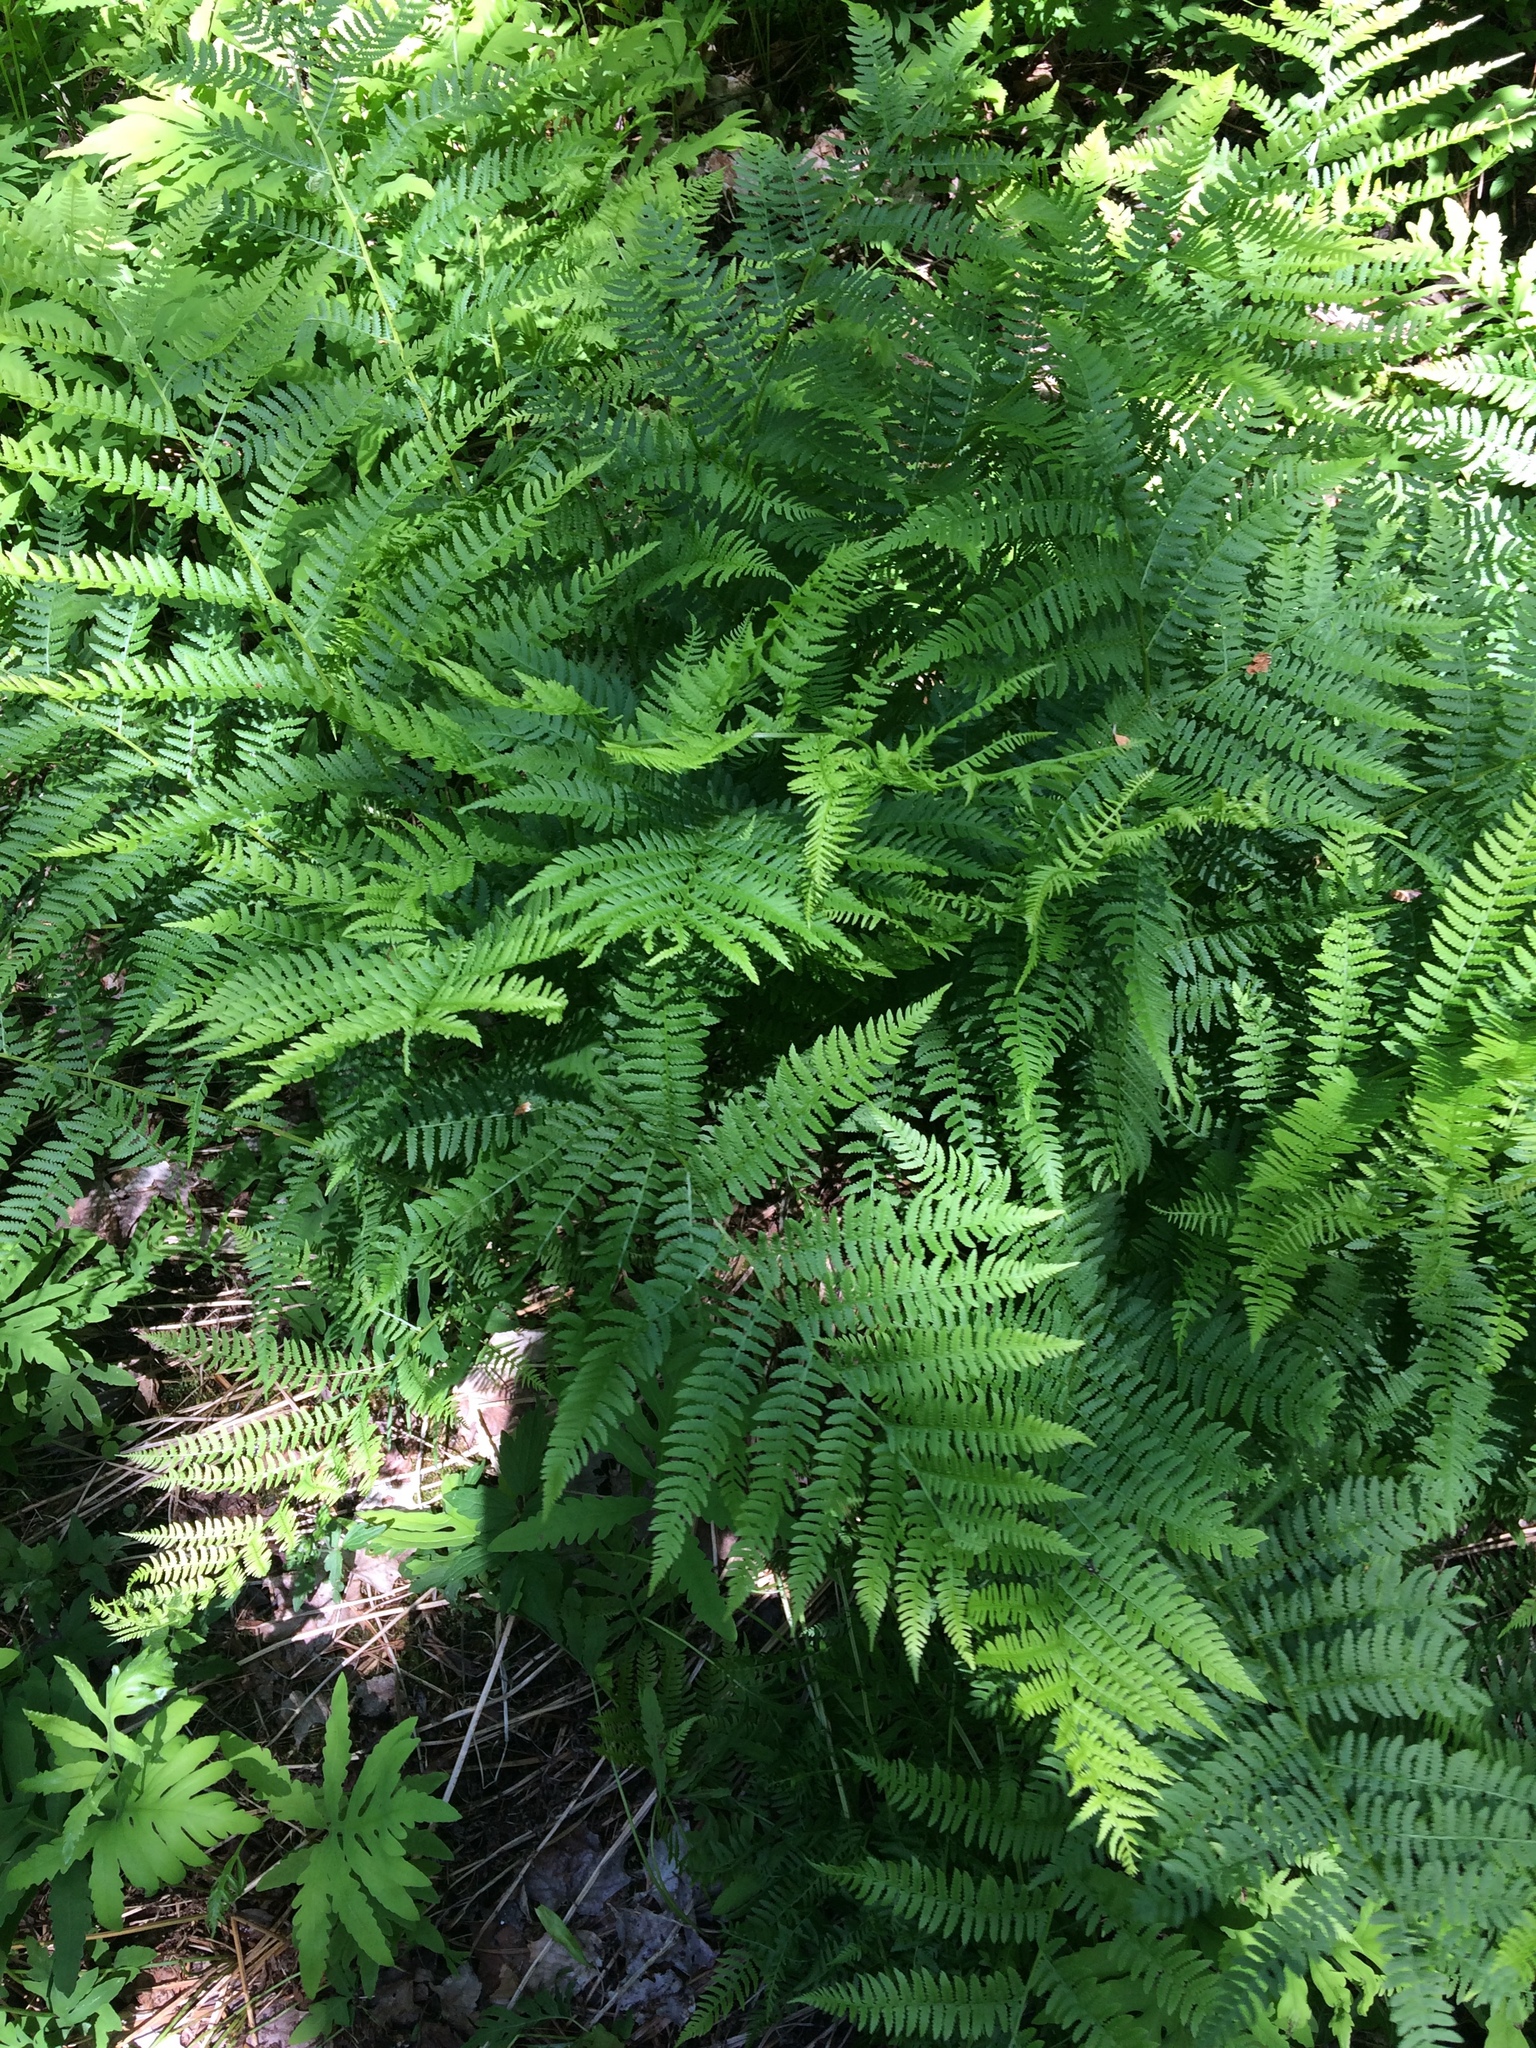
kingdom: Plantae
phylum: Tracheophyta
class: Polypodiopsida
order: Polypodiales
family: Athyriaceae
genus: Athyrium
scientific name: Athyrium angustum
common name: Northern lady fern
